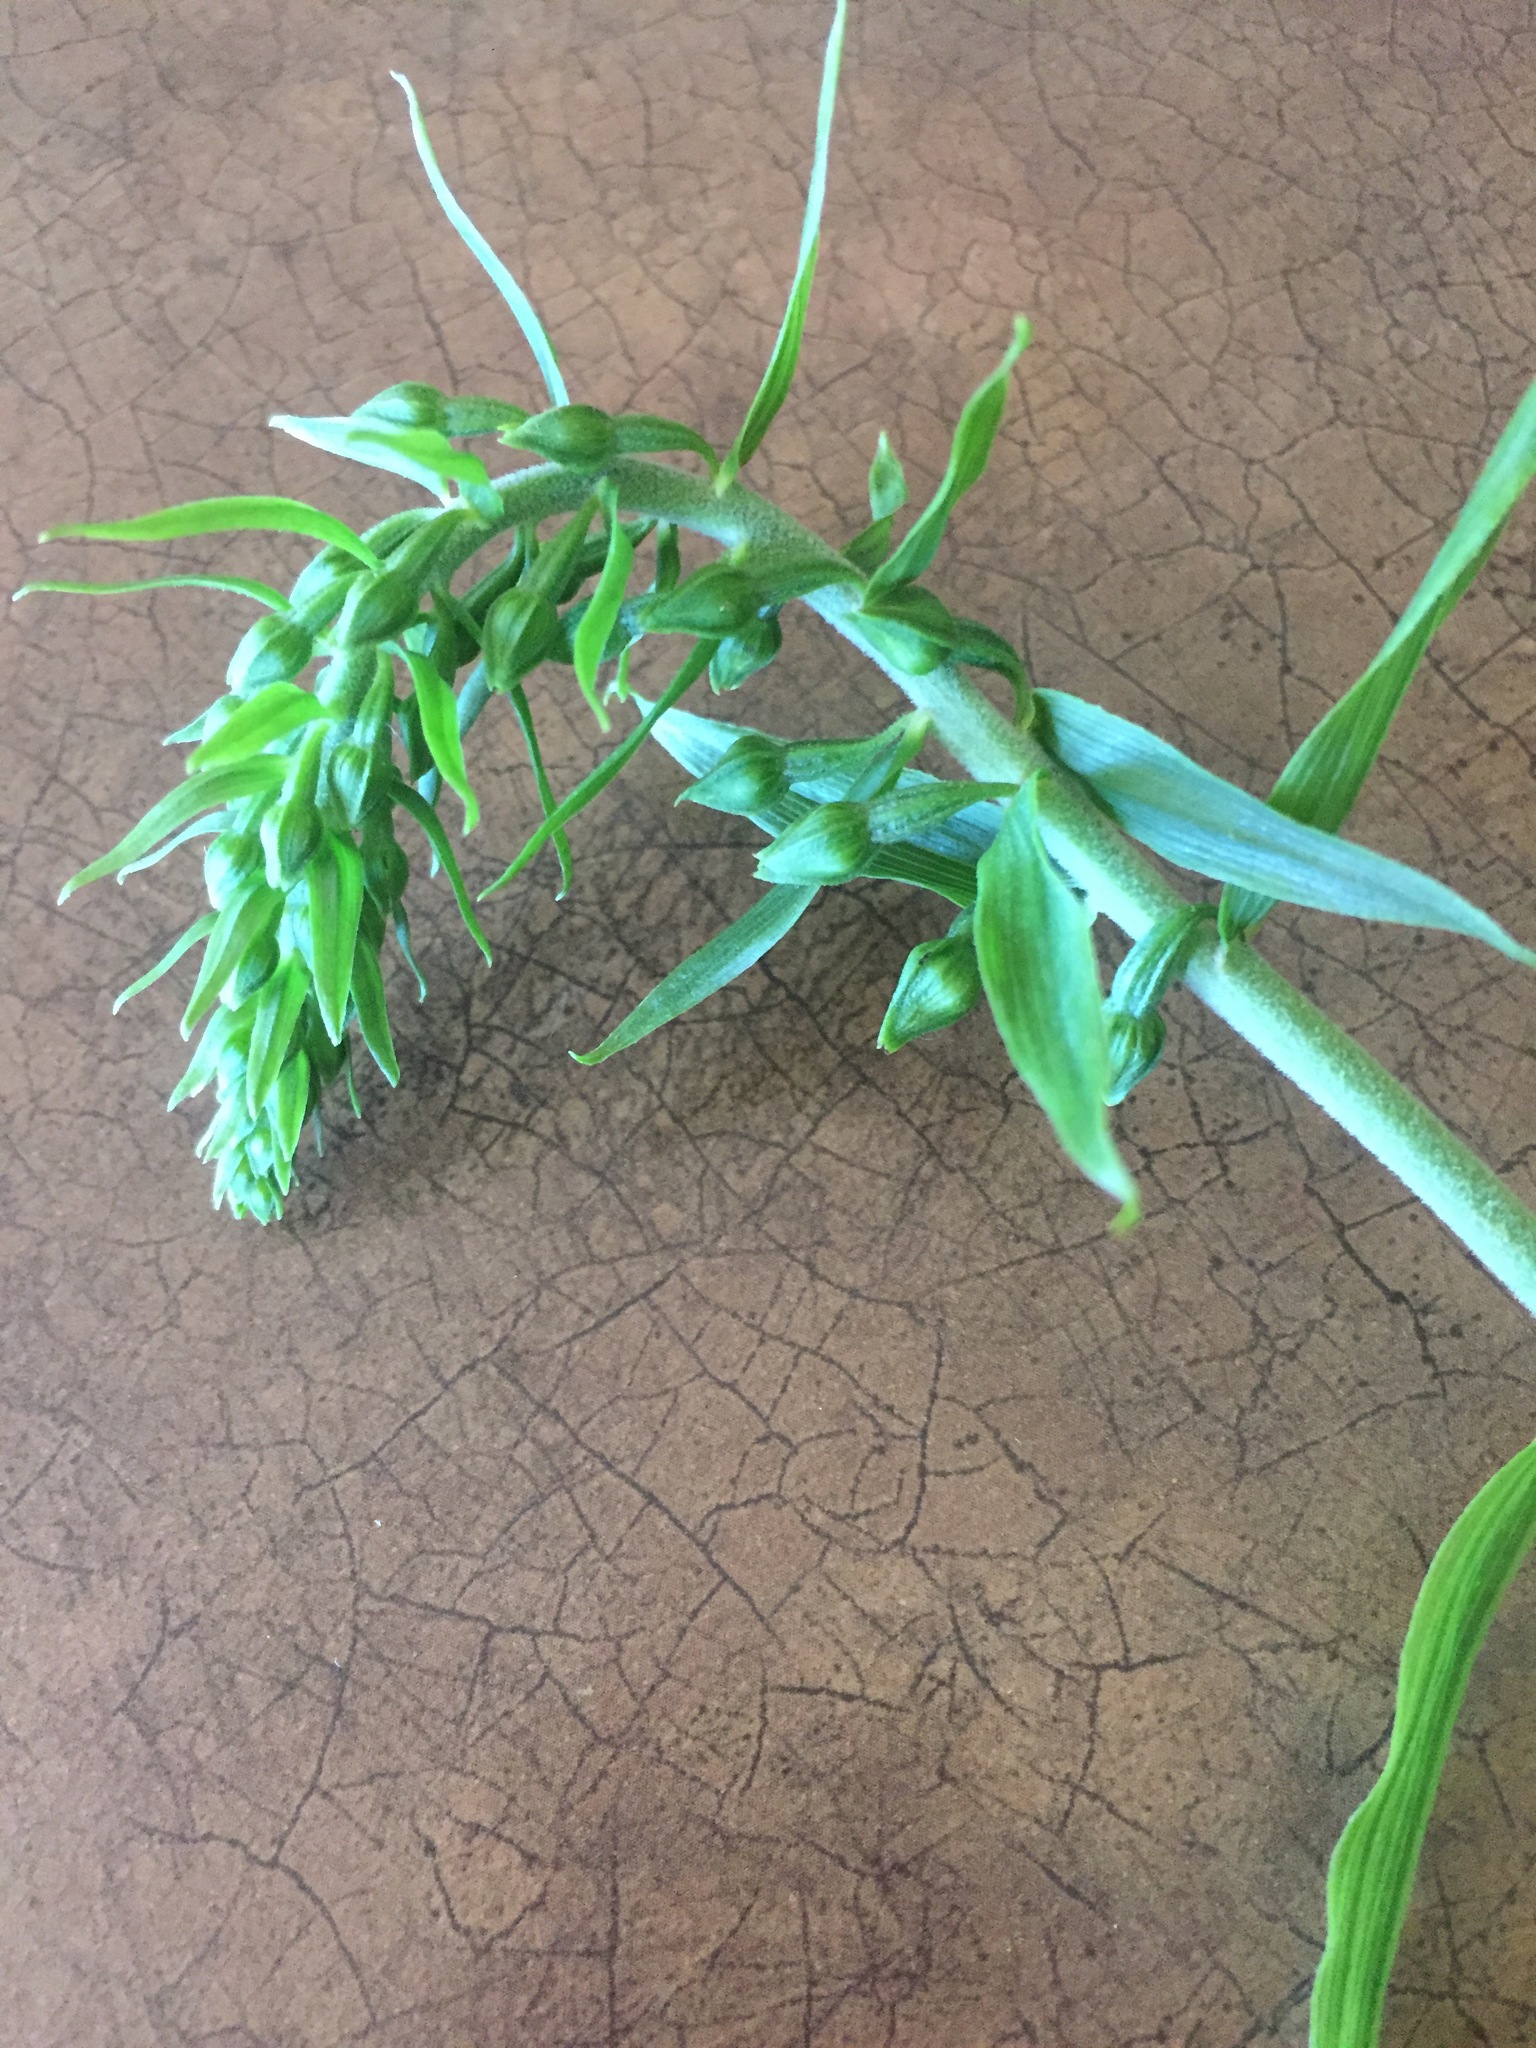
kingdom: Plantae
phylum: Tracheophyta
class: Liliopsida
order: Asparagales
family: Orchidaceae
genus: Epipactis
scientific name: Epipactis helleborine
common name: Broad-leaved helleborine
